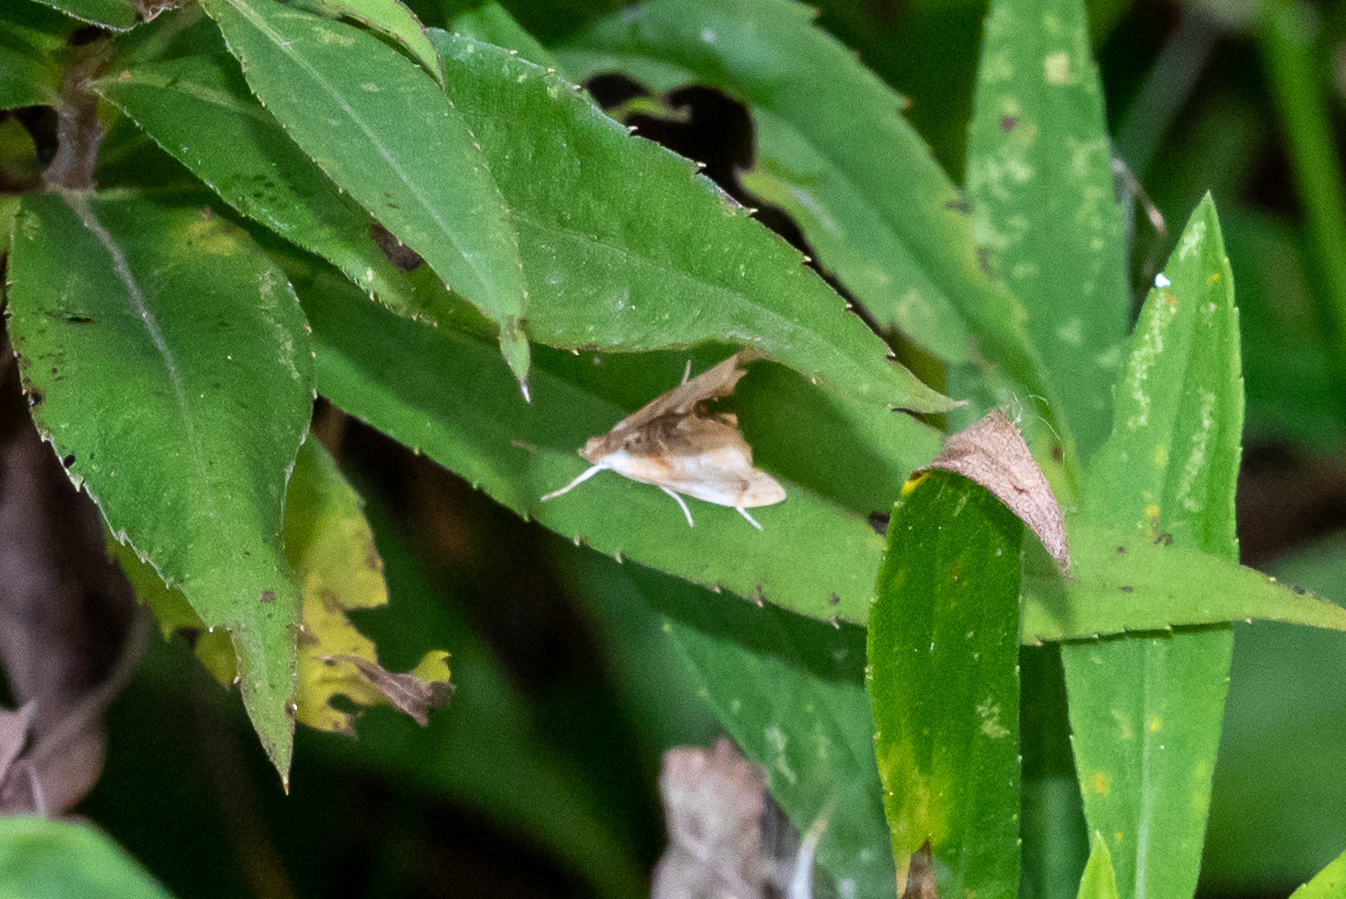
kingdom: Animalia
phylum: Arthropoda
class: Insecta
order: Lepidoptera
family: Crambidae
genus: Dicymolomia
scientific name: Dicymolomia julianalis
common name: Julia's dicymolomia moth
